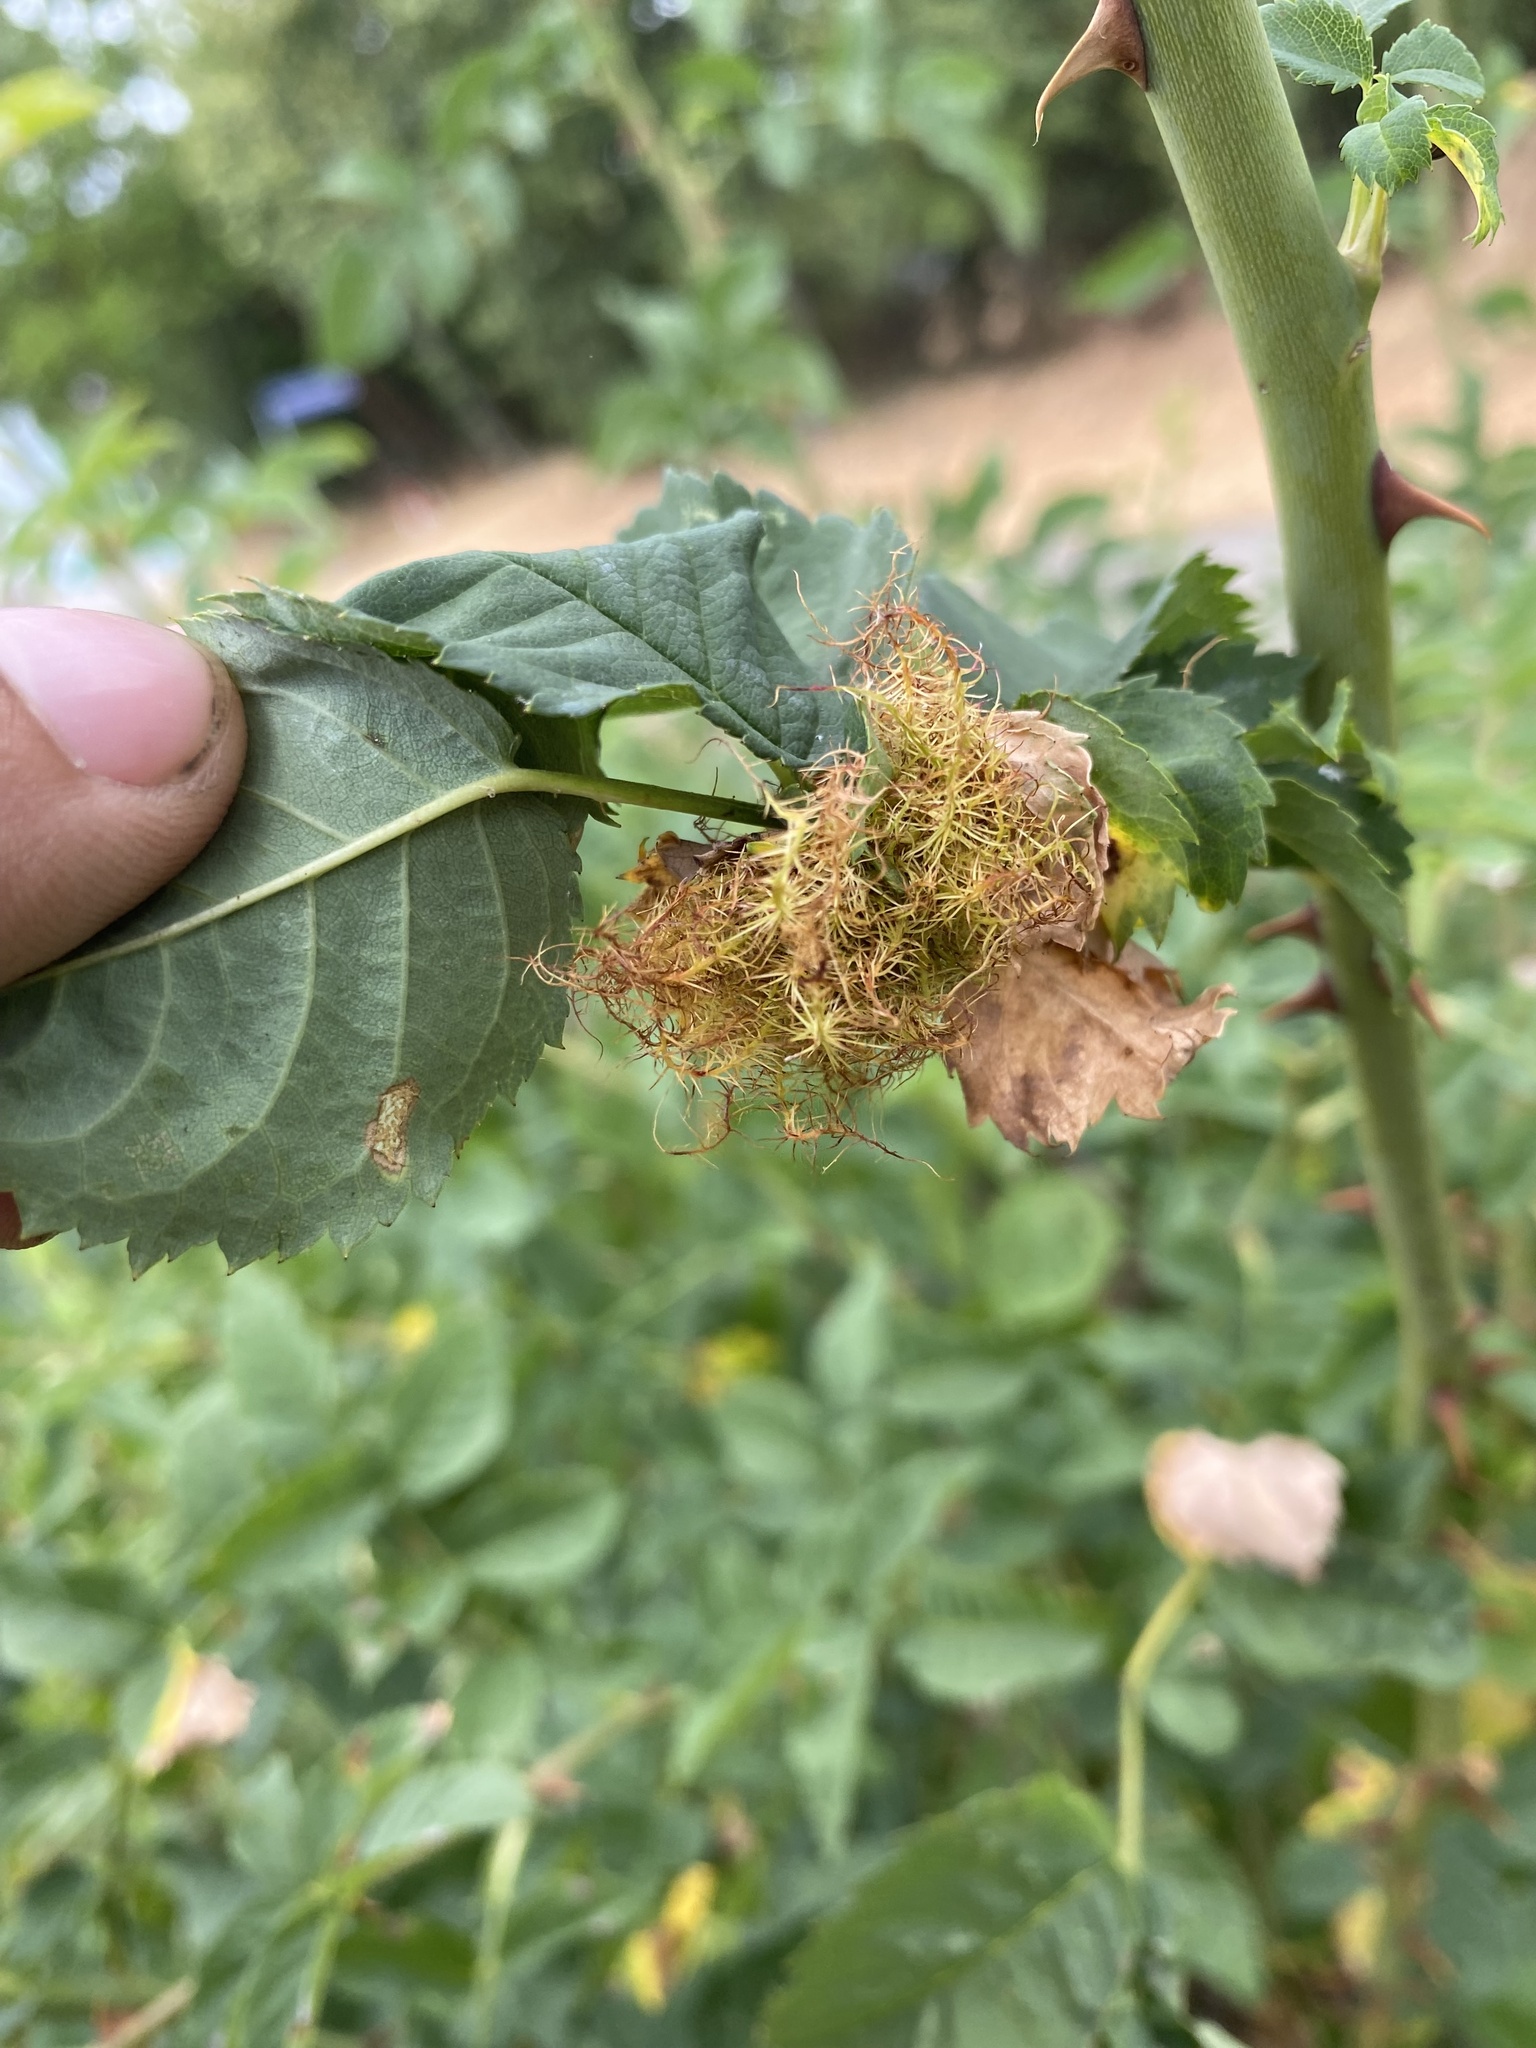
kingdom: Animalia
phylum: Arthropoda
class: Insecta
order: Hymenoptera
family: Cynipidae
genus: Diplolepis
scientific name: Diplolepis rosae
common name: Bedeguar gall
